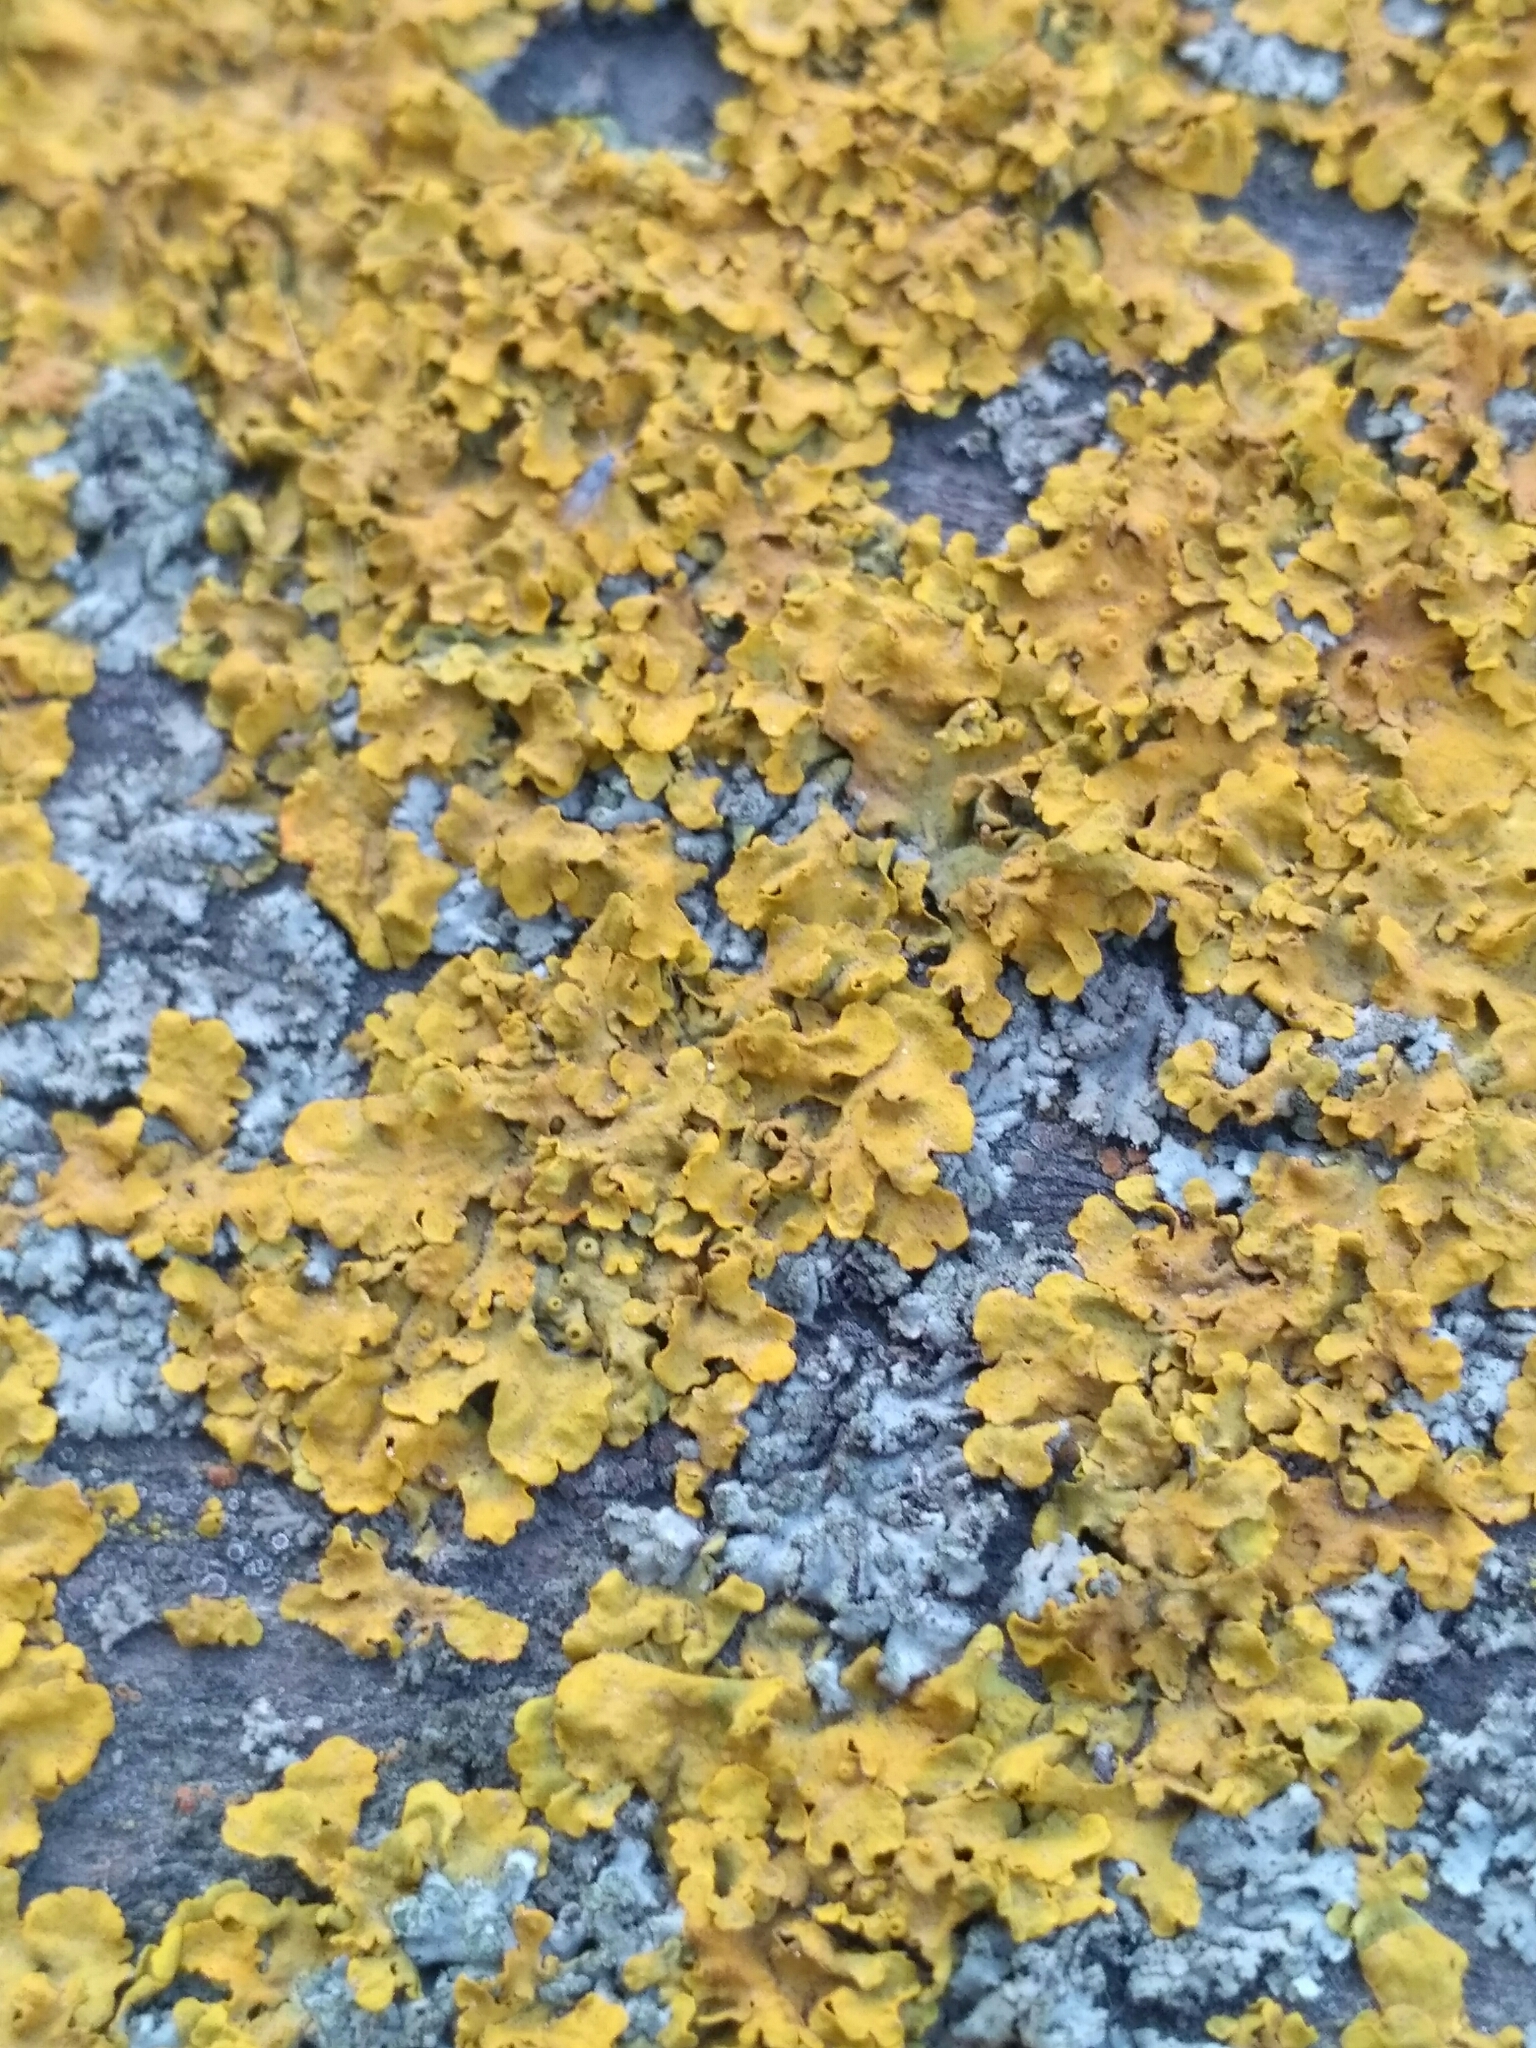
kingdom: Fungi
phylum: Ascomycota
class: Lecanoromycetes
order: Teloschistales
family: Teloschistaceae
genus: Xanthoria
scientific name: Xanthoria parietina
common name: Common orange lichen
